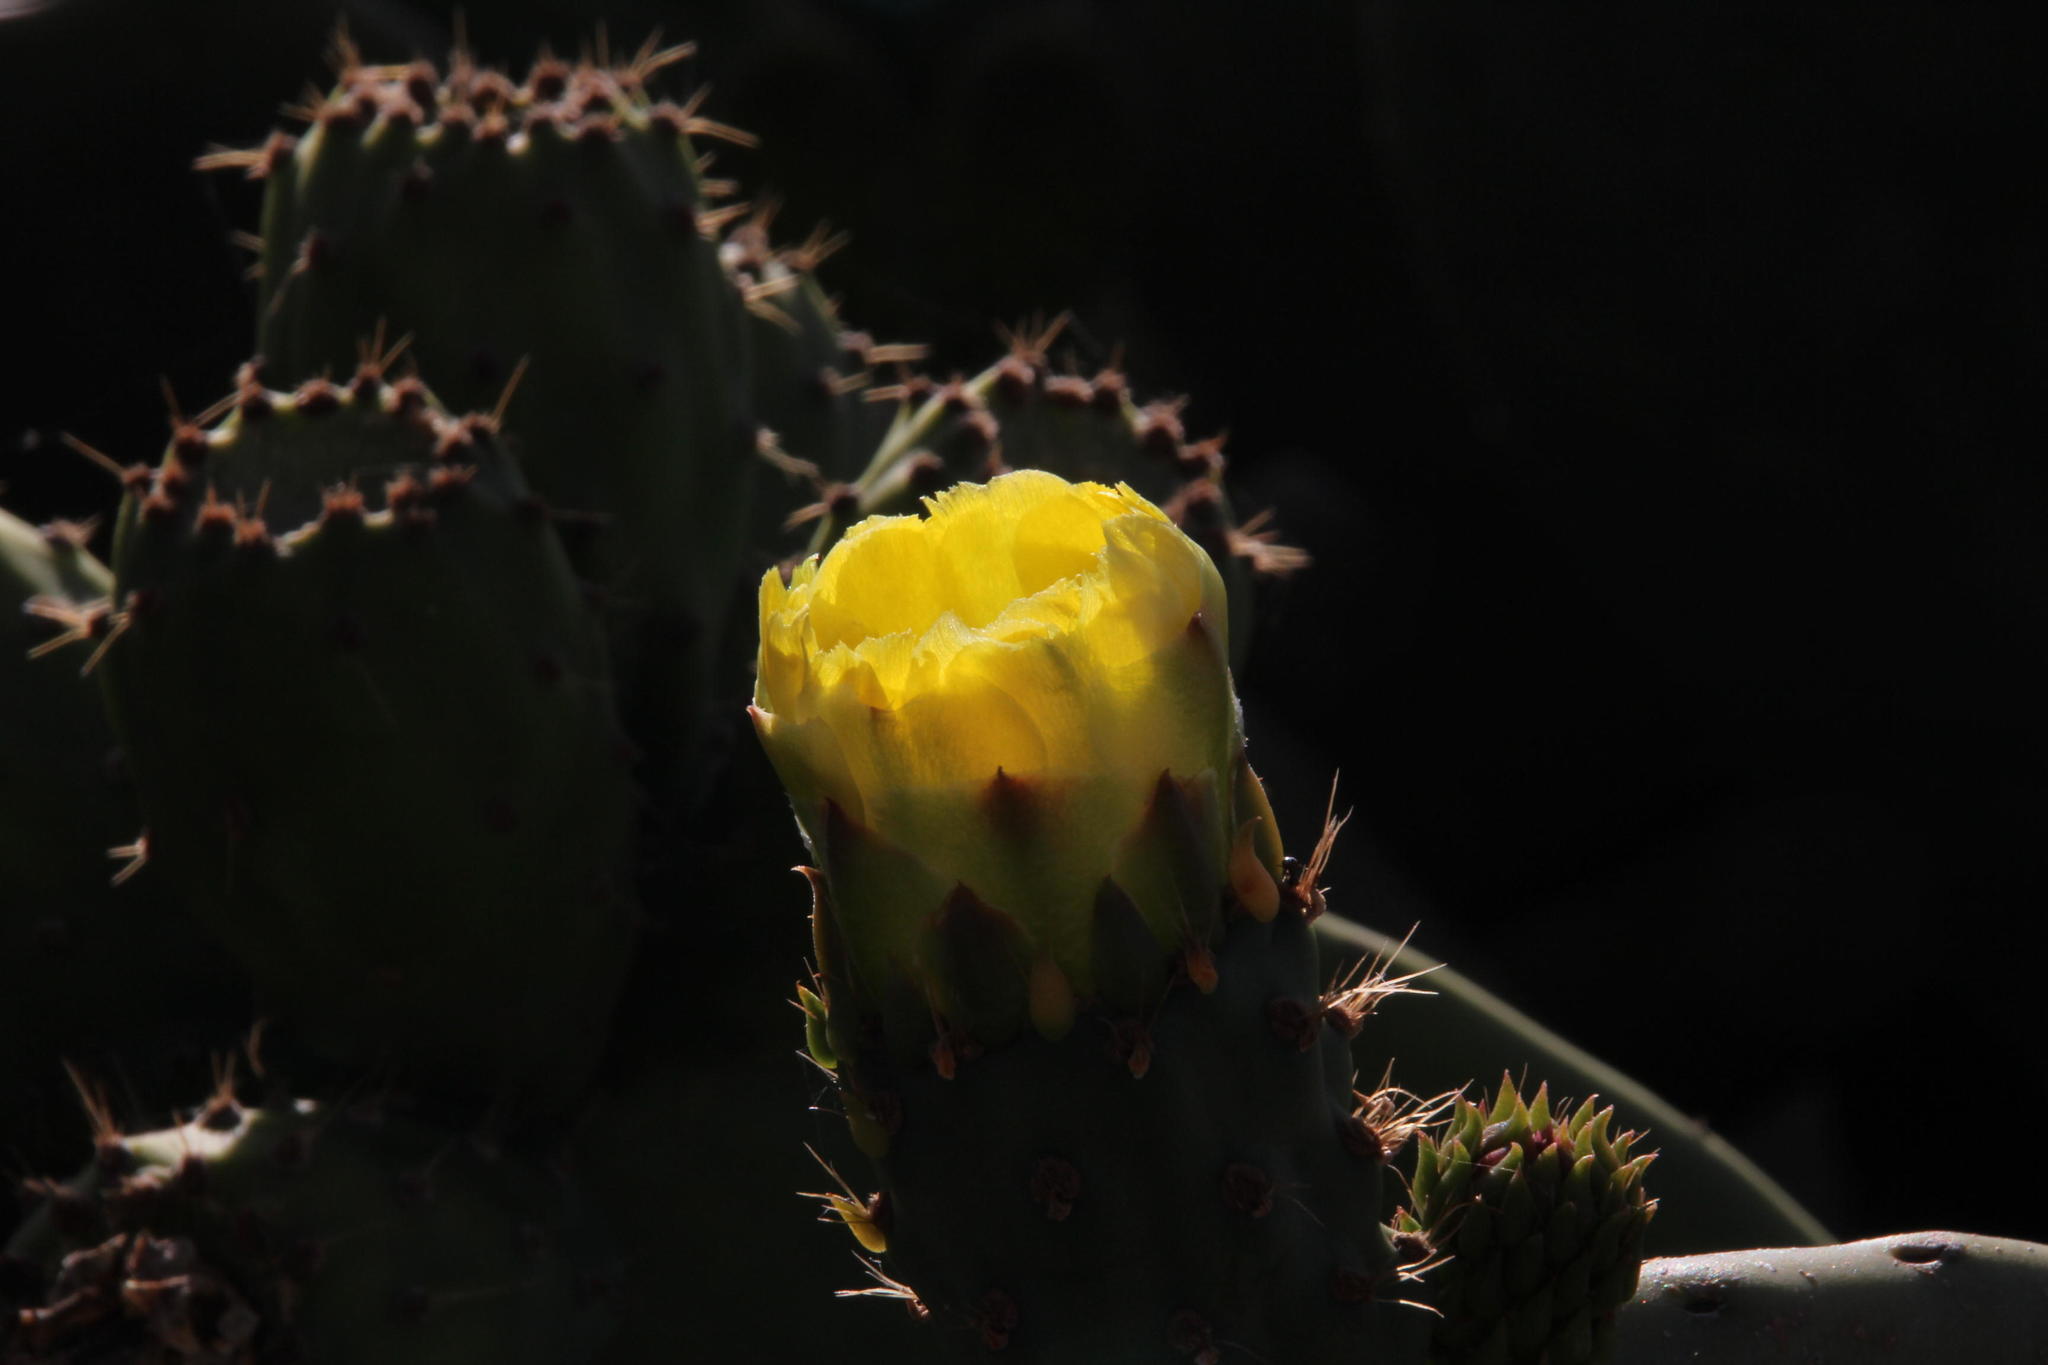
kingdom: Plantae
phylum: Tracheophyta
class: Magnoliopsida
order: Caryophyllales
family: Cactaceae
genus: Opuntia
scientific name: Opuntia ficus-indica
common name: Barbary fig
